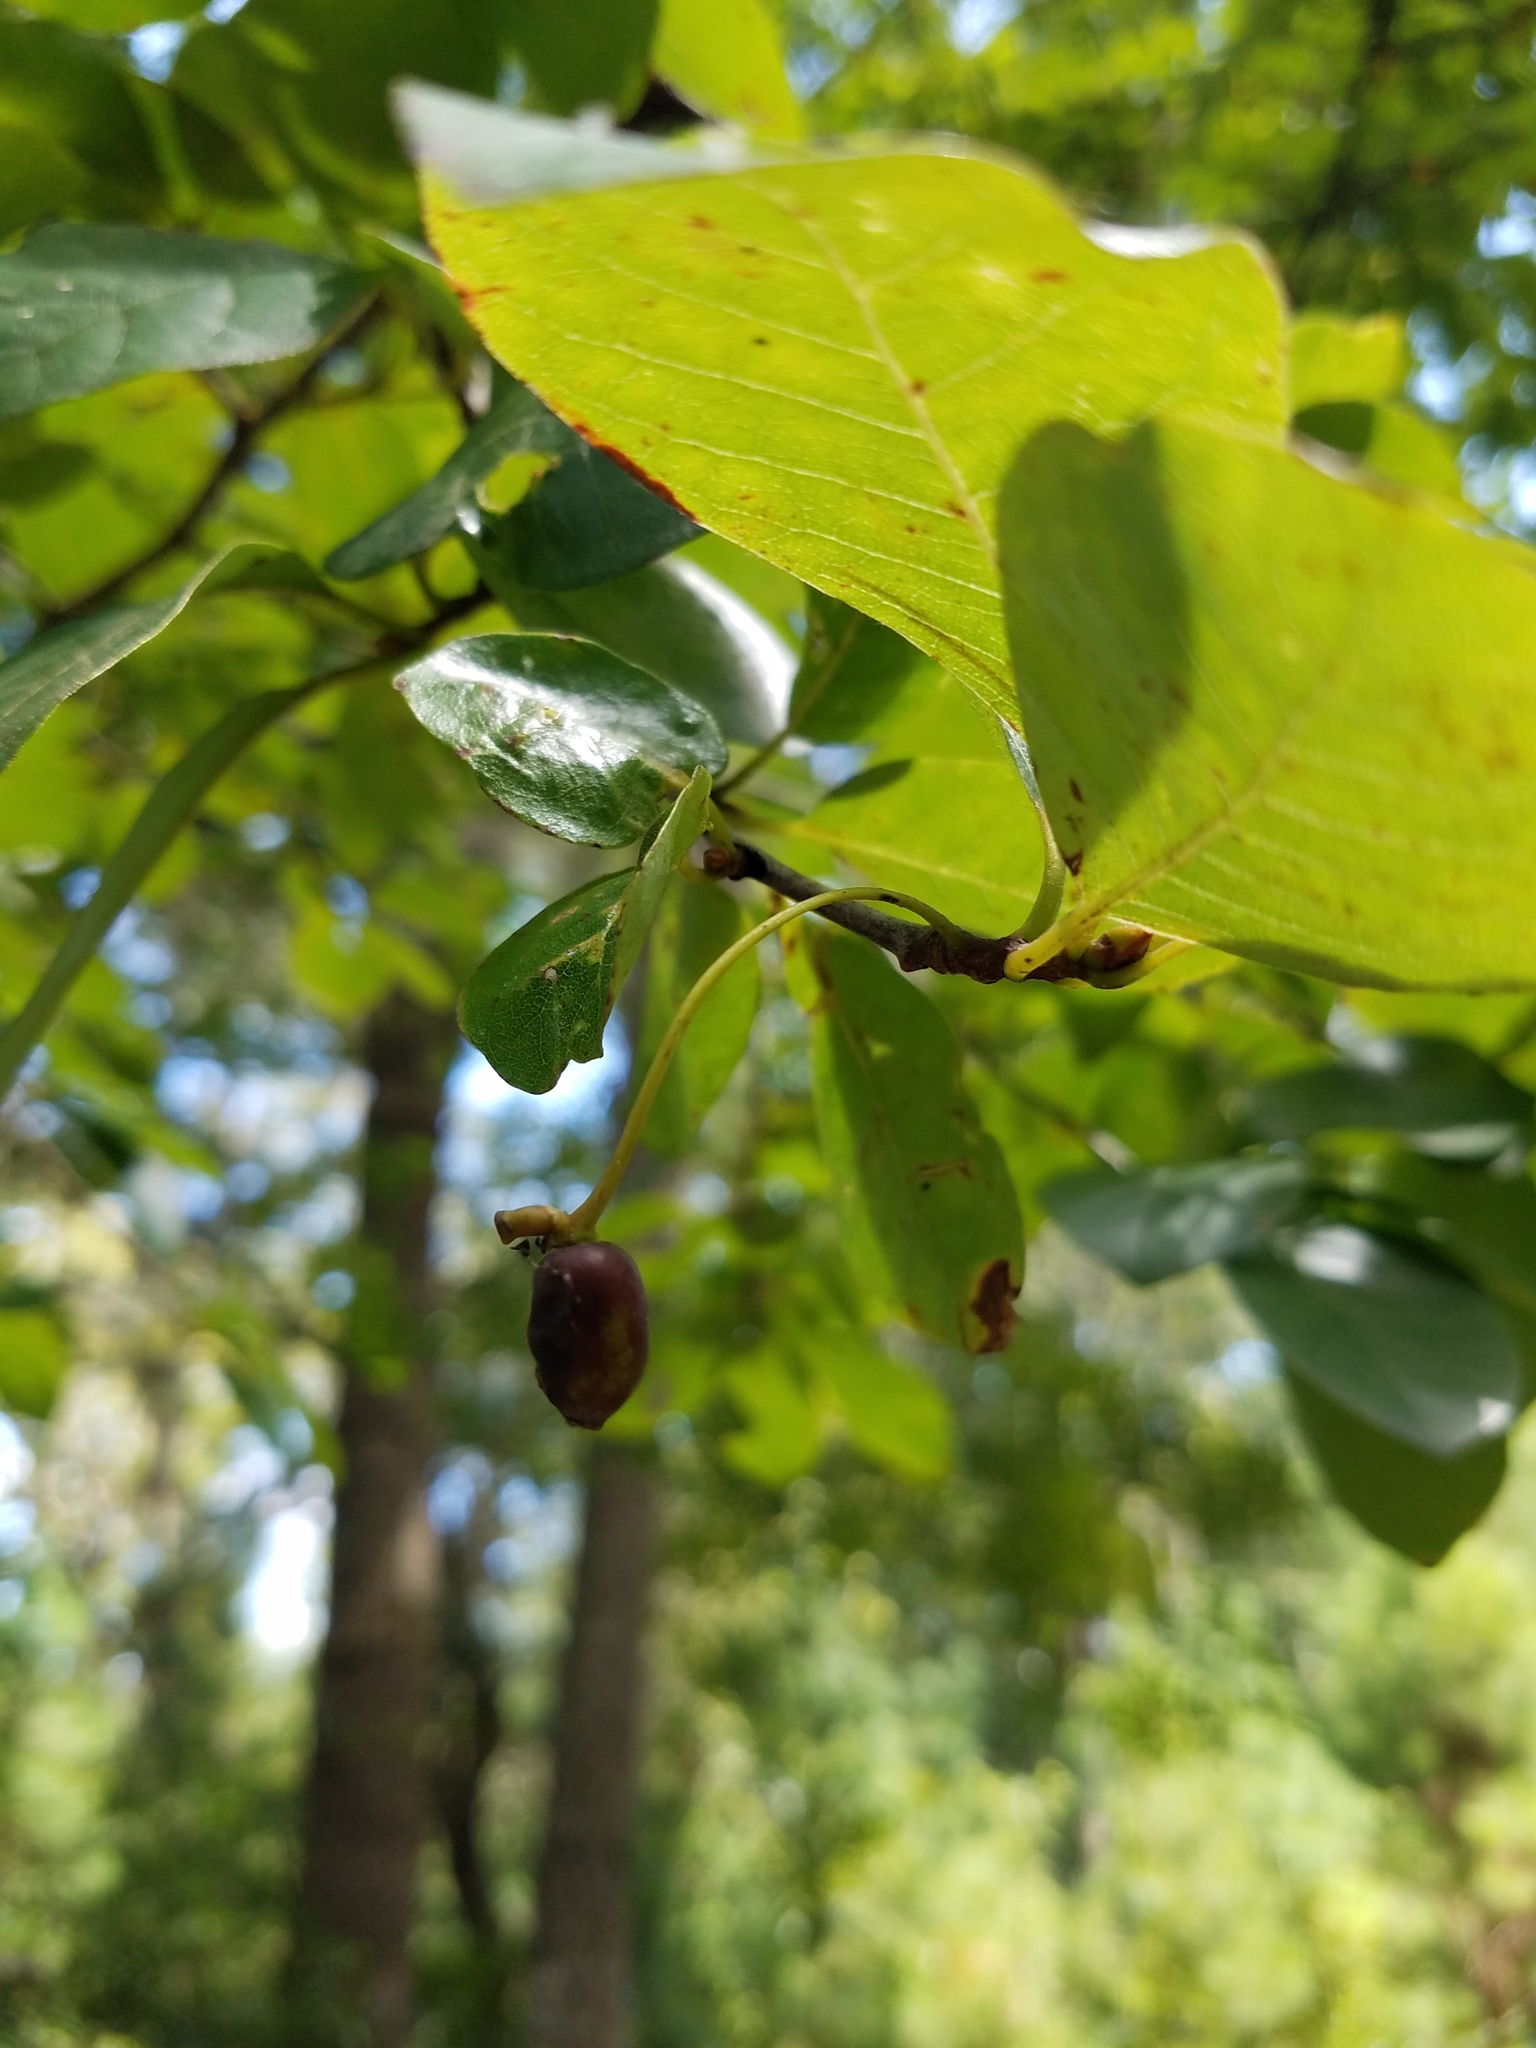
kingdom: Plantae
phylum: Tracheophyta
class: Magnoliopsida
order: Cornales
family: Nyssaceae
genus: Nyssa
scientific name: Nyssa biflora
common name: Swamp blackgum
